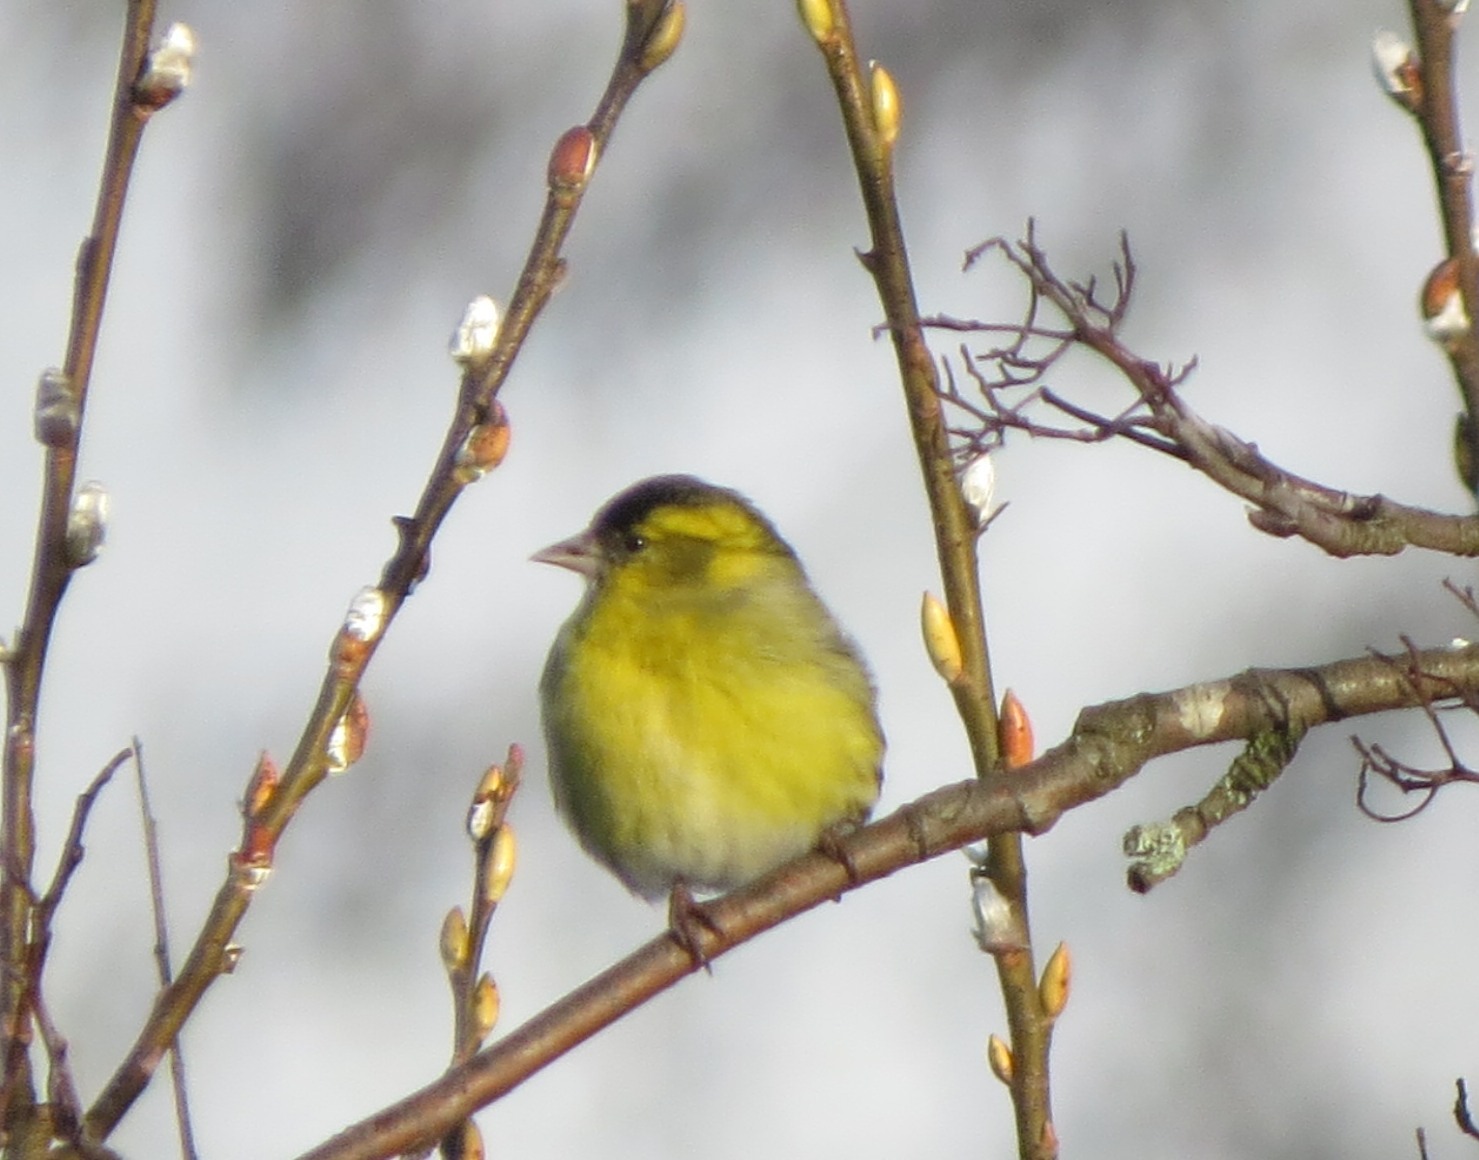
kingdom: Animalia
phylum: Chordata
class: Aves
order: Passeriformes
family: Fringillidae
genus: Spinus
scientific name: Spinus spinus
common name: Eurasian siskin
